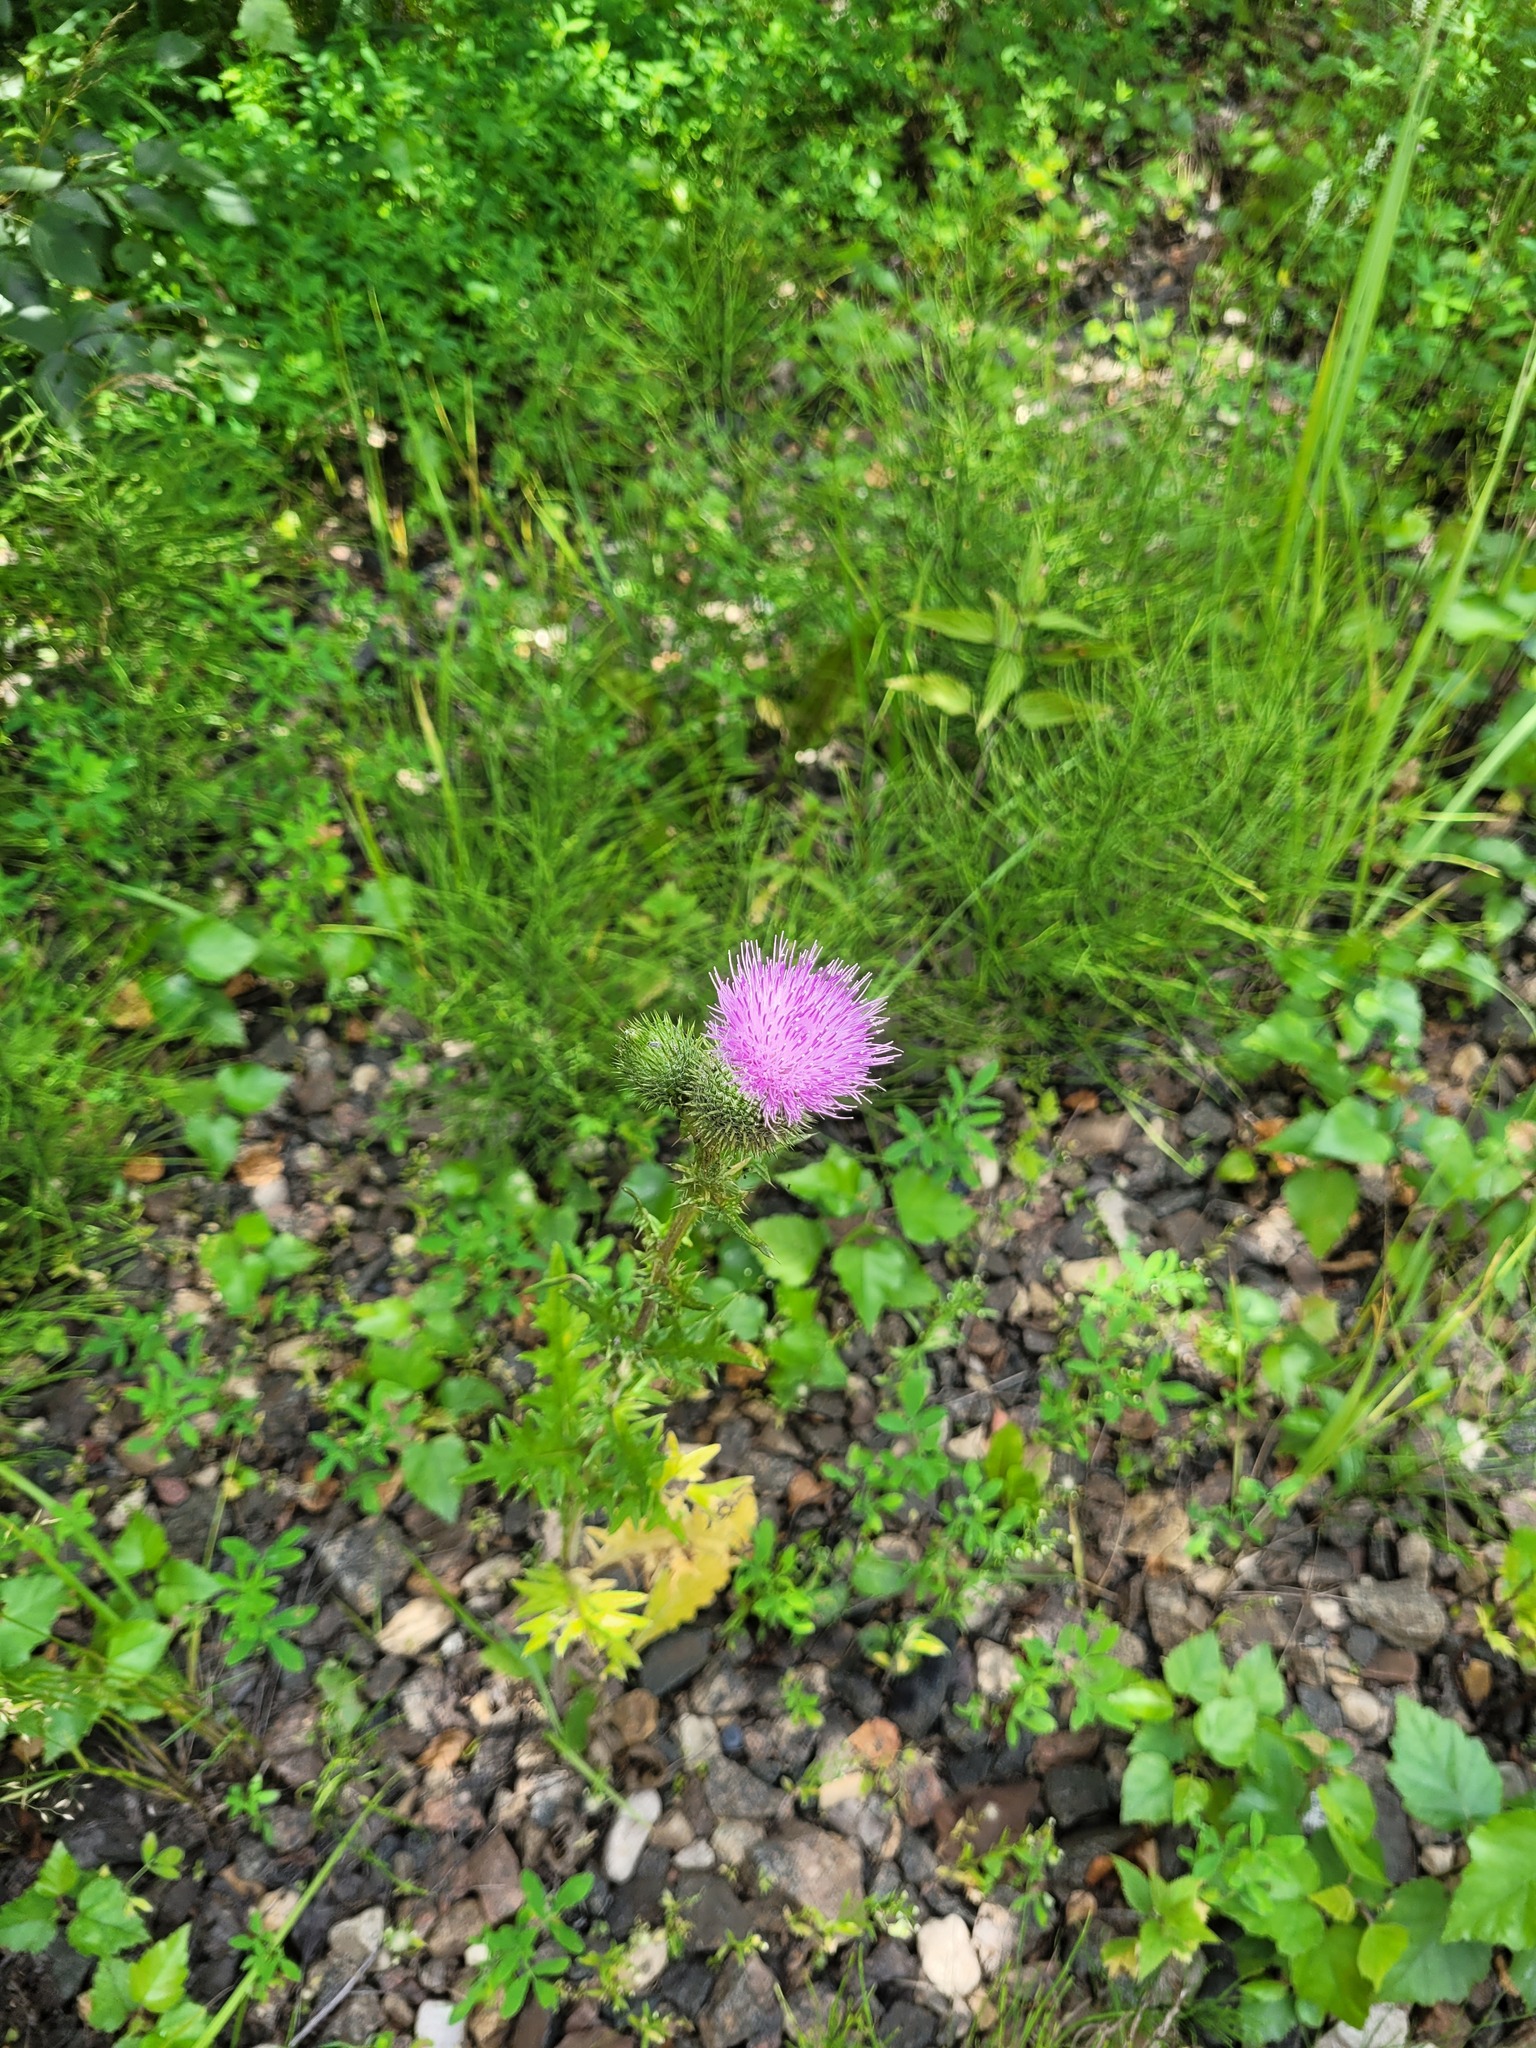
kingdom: Plantae
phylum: Tracheophyta
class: Magnoliopsida
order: Asterales
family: Asteraceae
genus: Cirsium
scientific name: Cirsium vulgare
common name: Bull thistle
